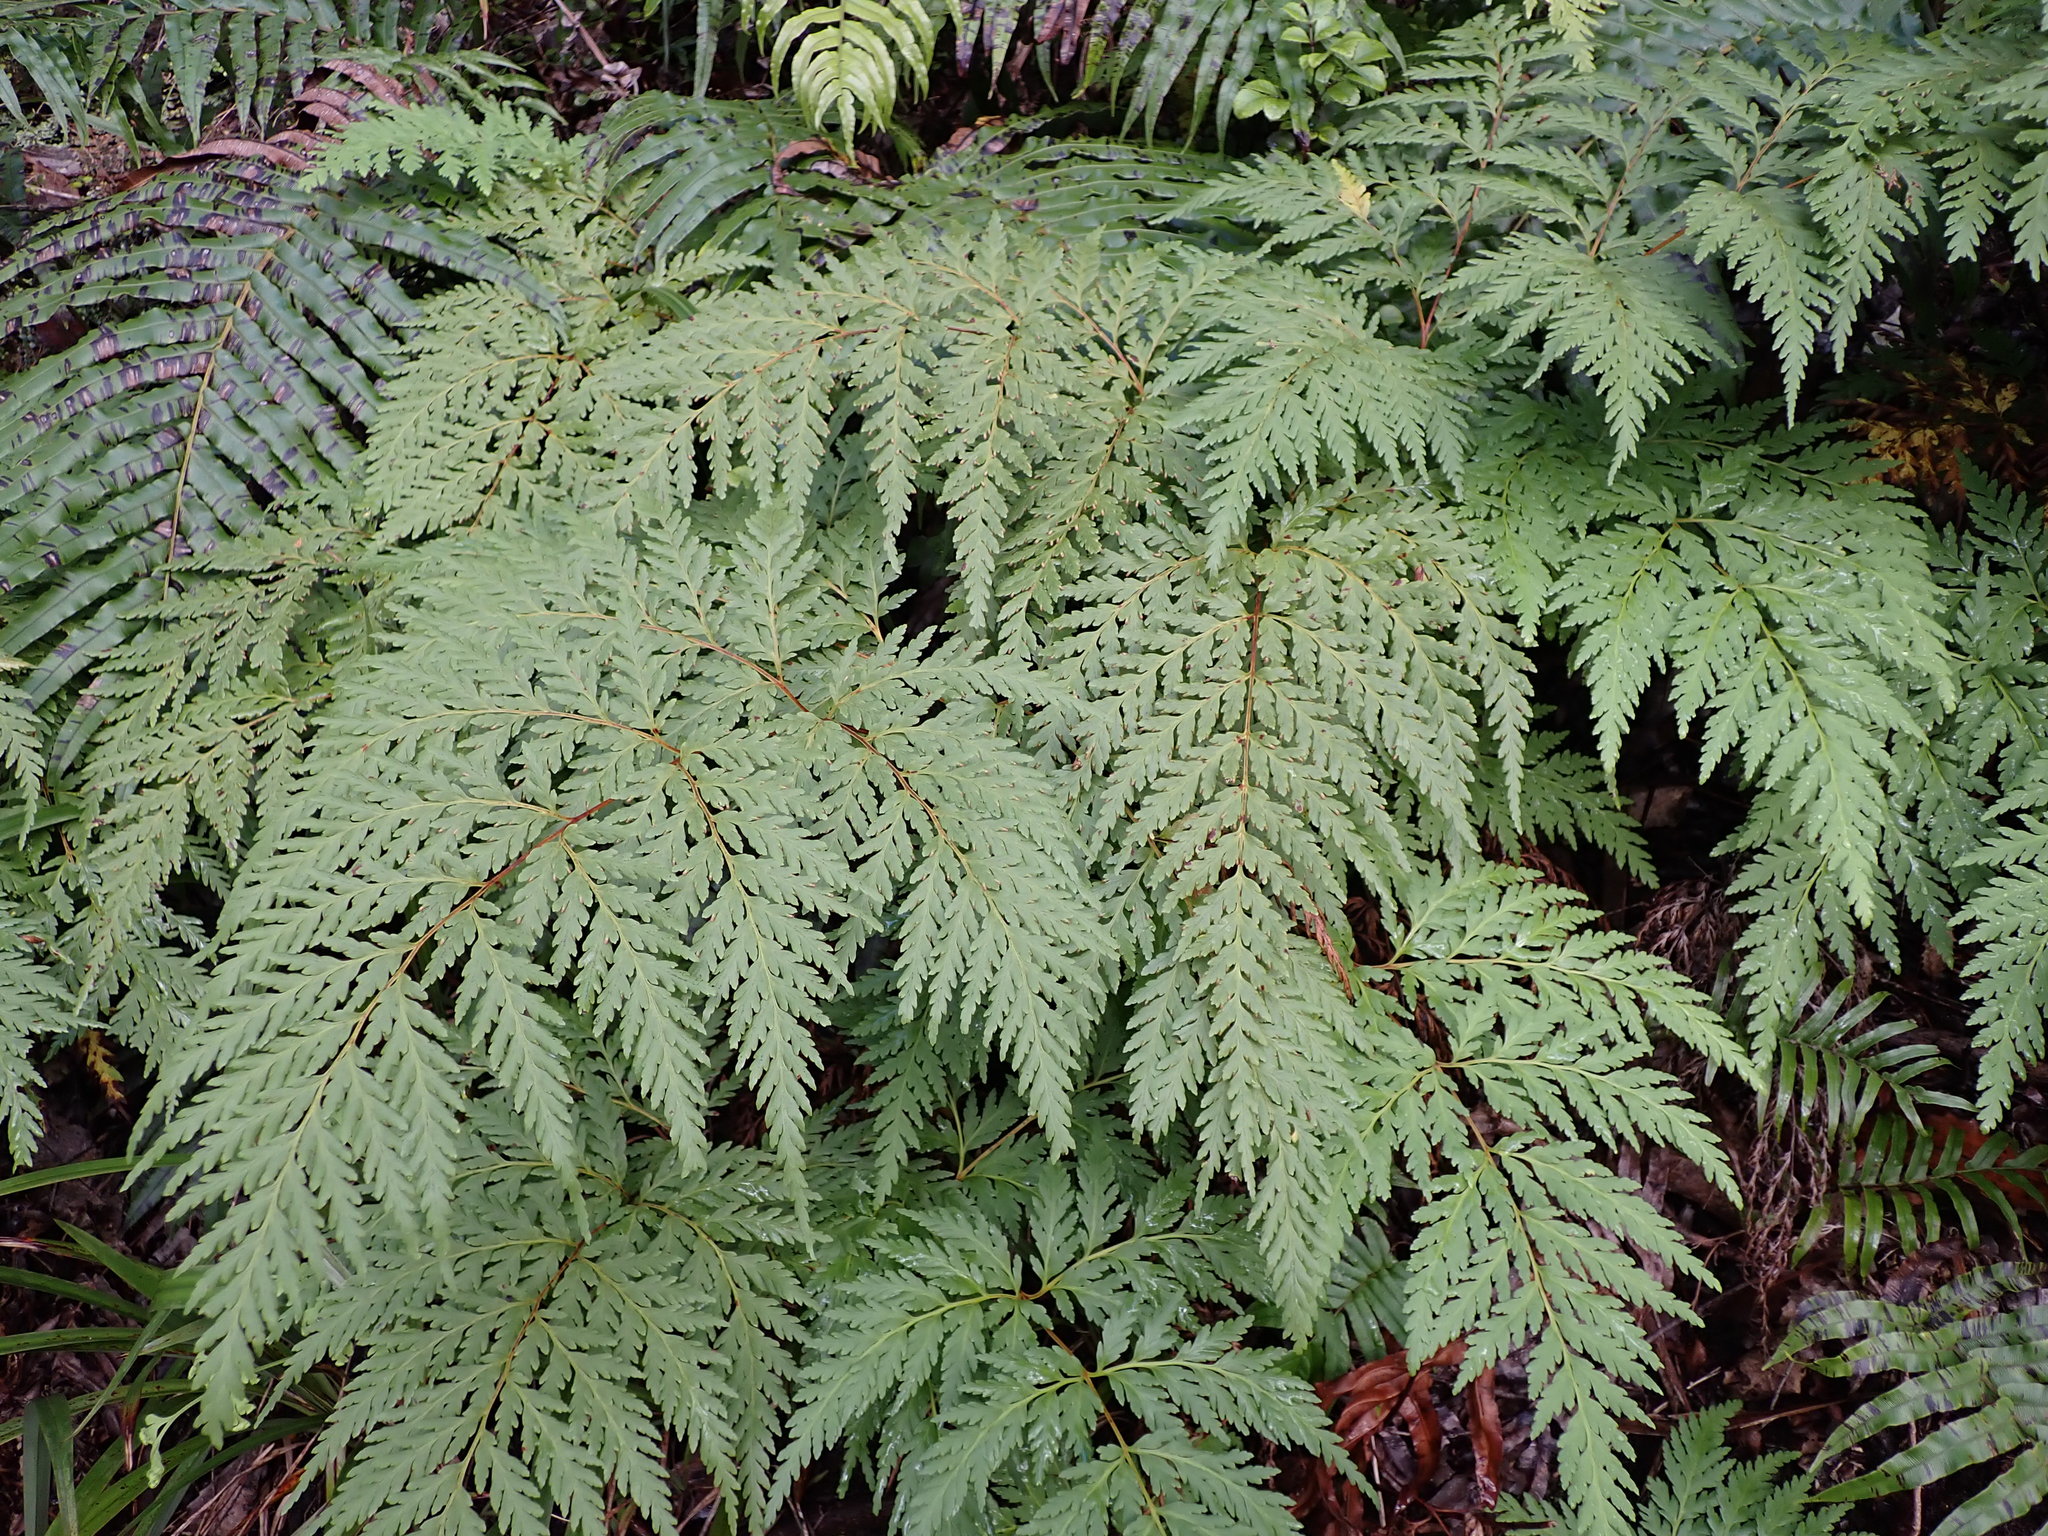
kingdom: Plantae
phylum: Tracheophyta
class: Polypodiopsida
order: Cyatheales
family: Loxsomataceae
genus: Loxsoma
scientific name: Loxsoma cunninghamii
